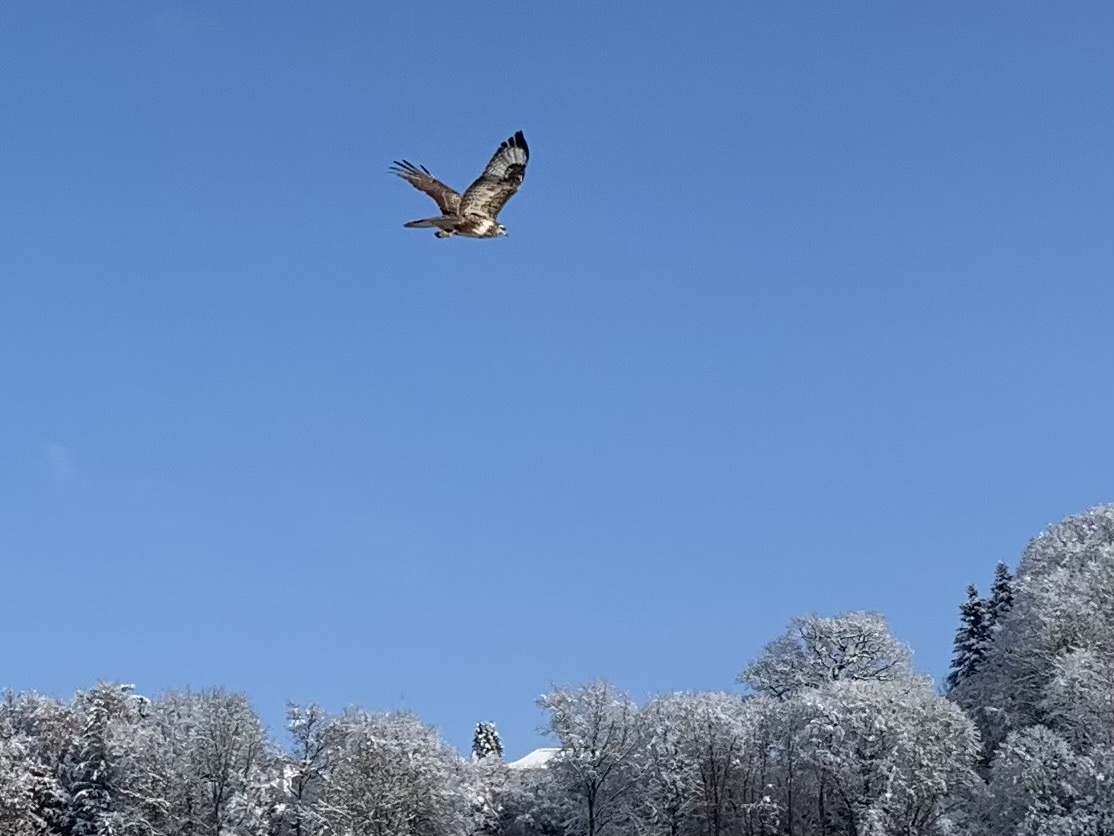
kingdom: Animalia
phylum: Chordata
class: Aves
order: Accipitriformes
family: Accipitridae
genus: Buteo
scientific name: Buteo buteo
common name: Common buzzard
